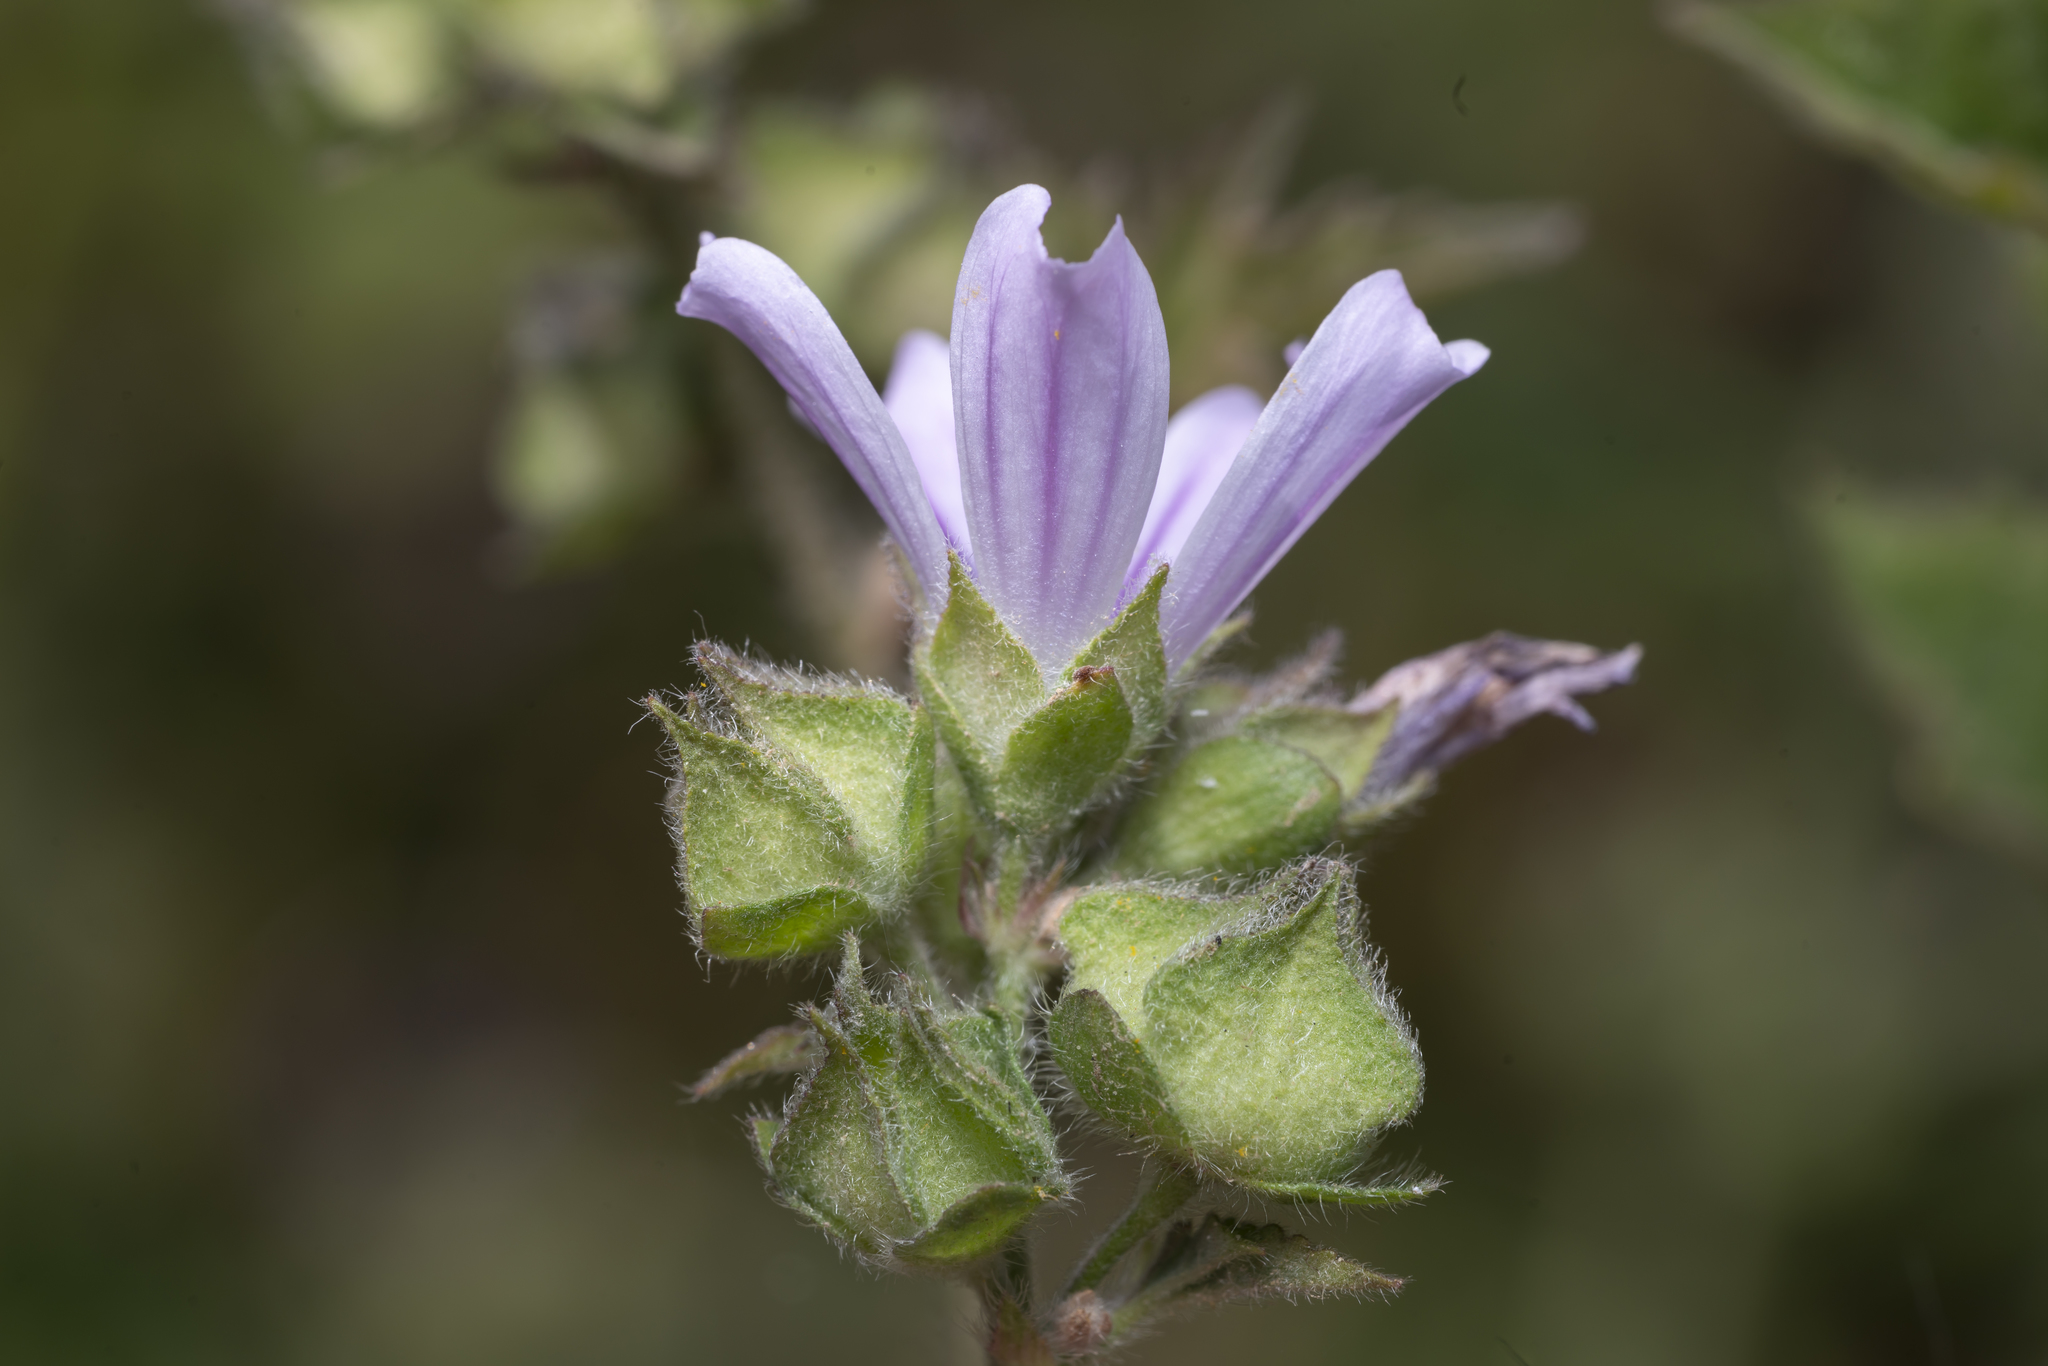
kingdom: Plantae
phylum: Tracheophyta
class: Magnoliopsida
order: Malvales
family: Malvaceae
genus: Malva
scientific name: Malva multiflora
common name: Cheeseweed
